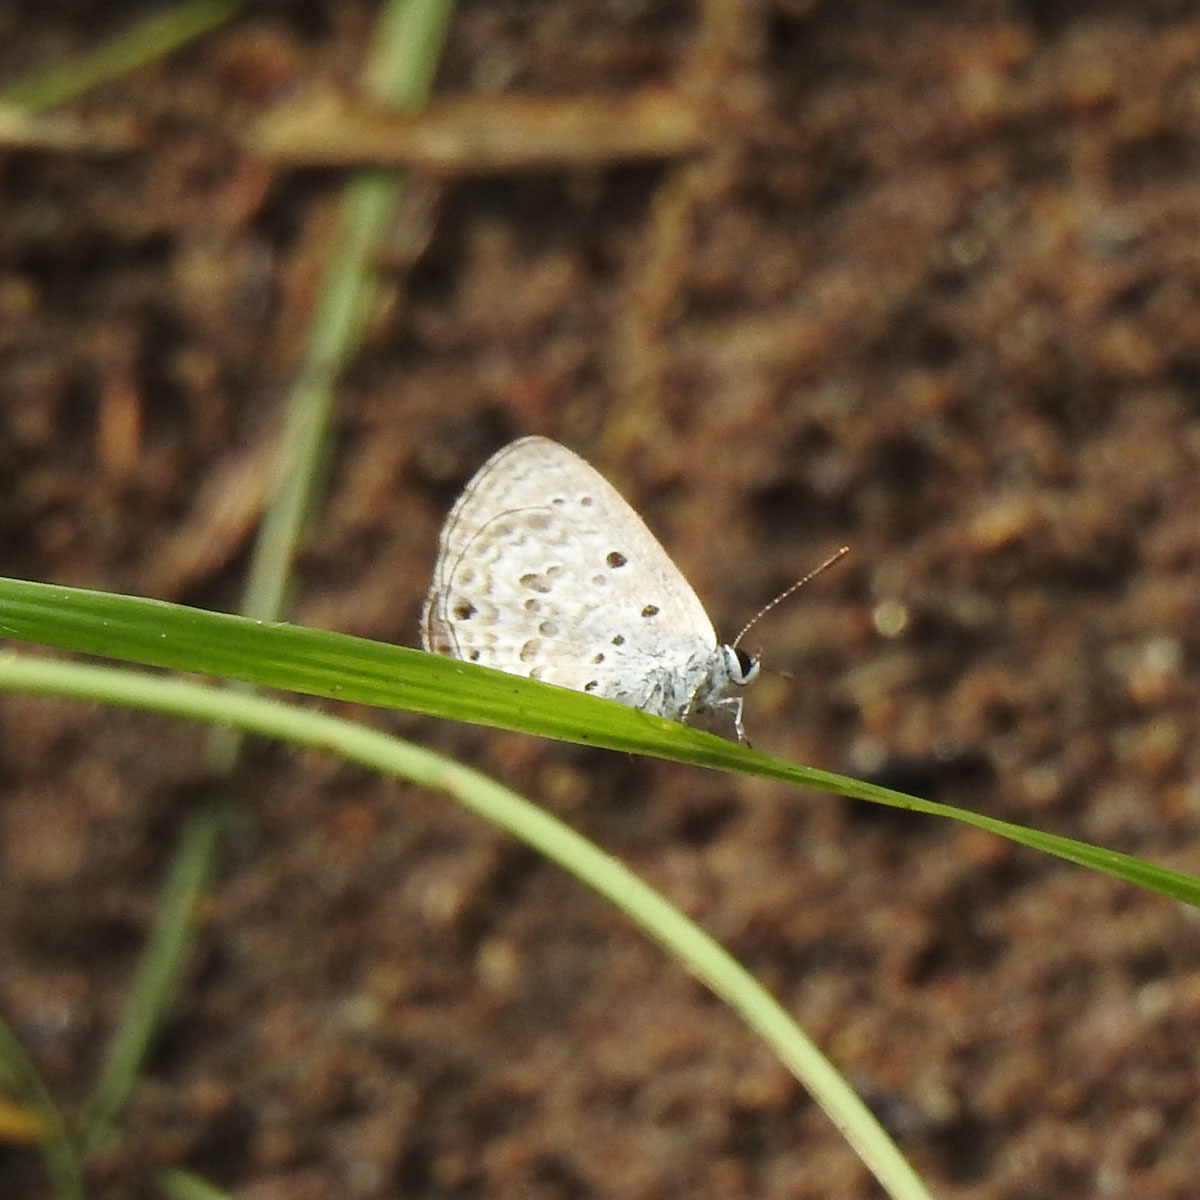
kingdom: Animalia
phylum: Arthropoda
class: Insecta
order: Lepidoptera
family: Lycaenidae
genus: Chilades
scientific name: Chilades laius
